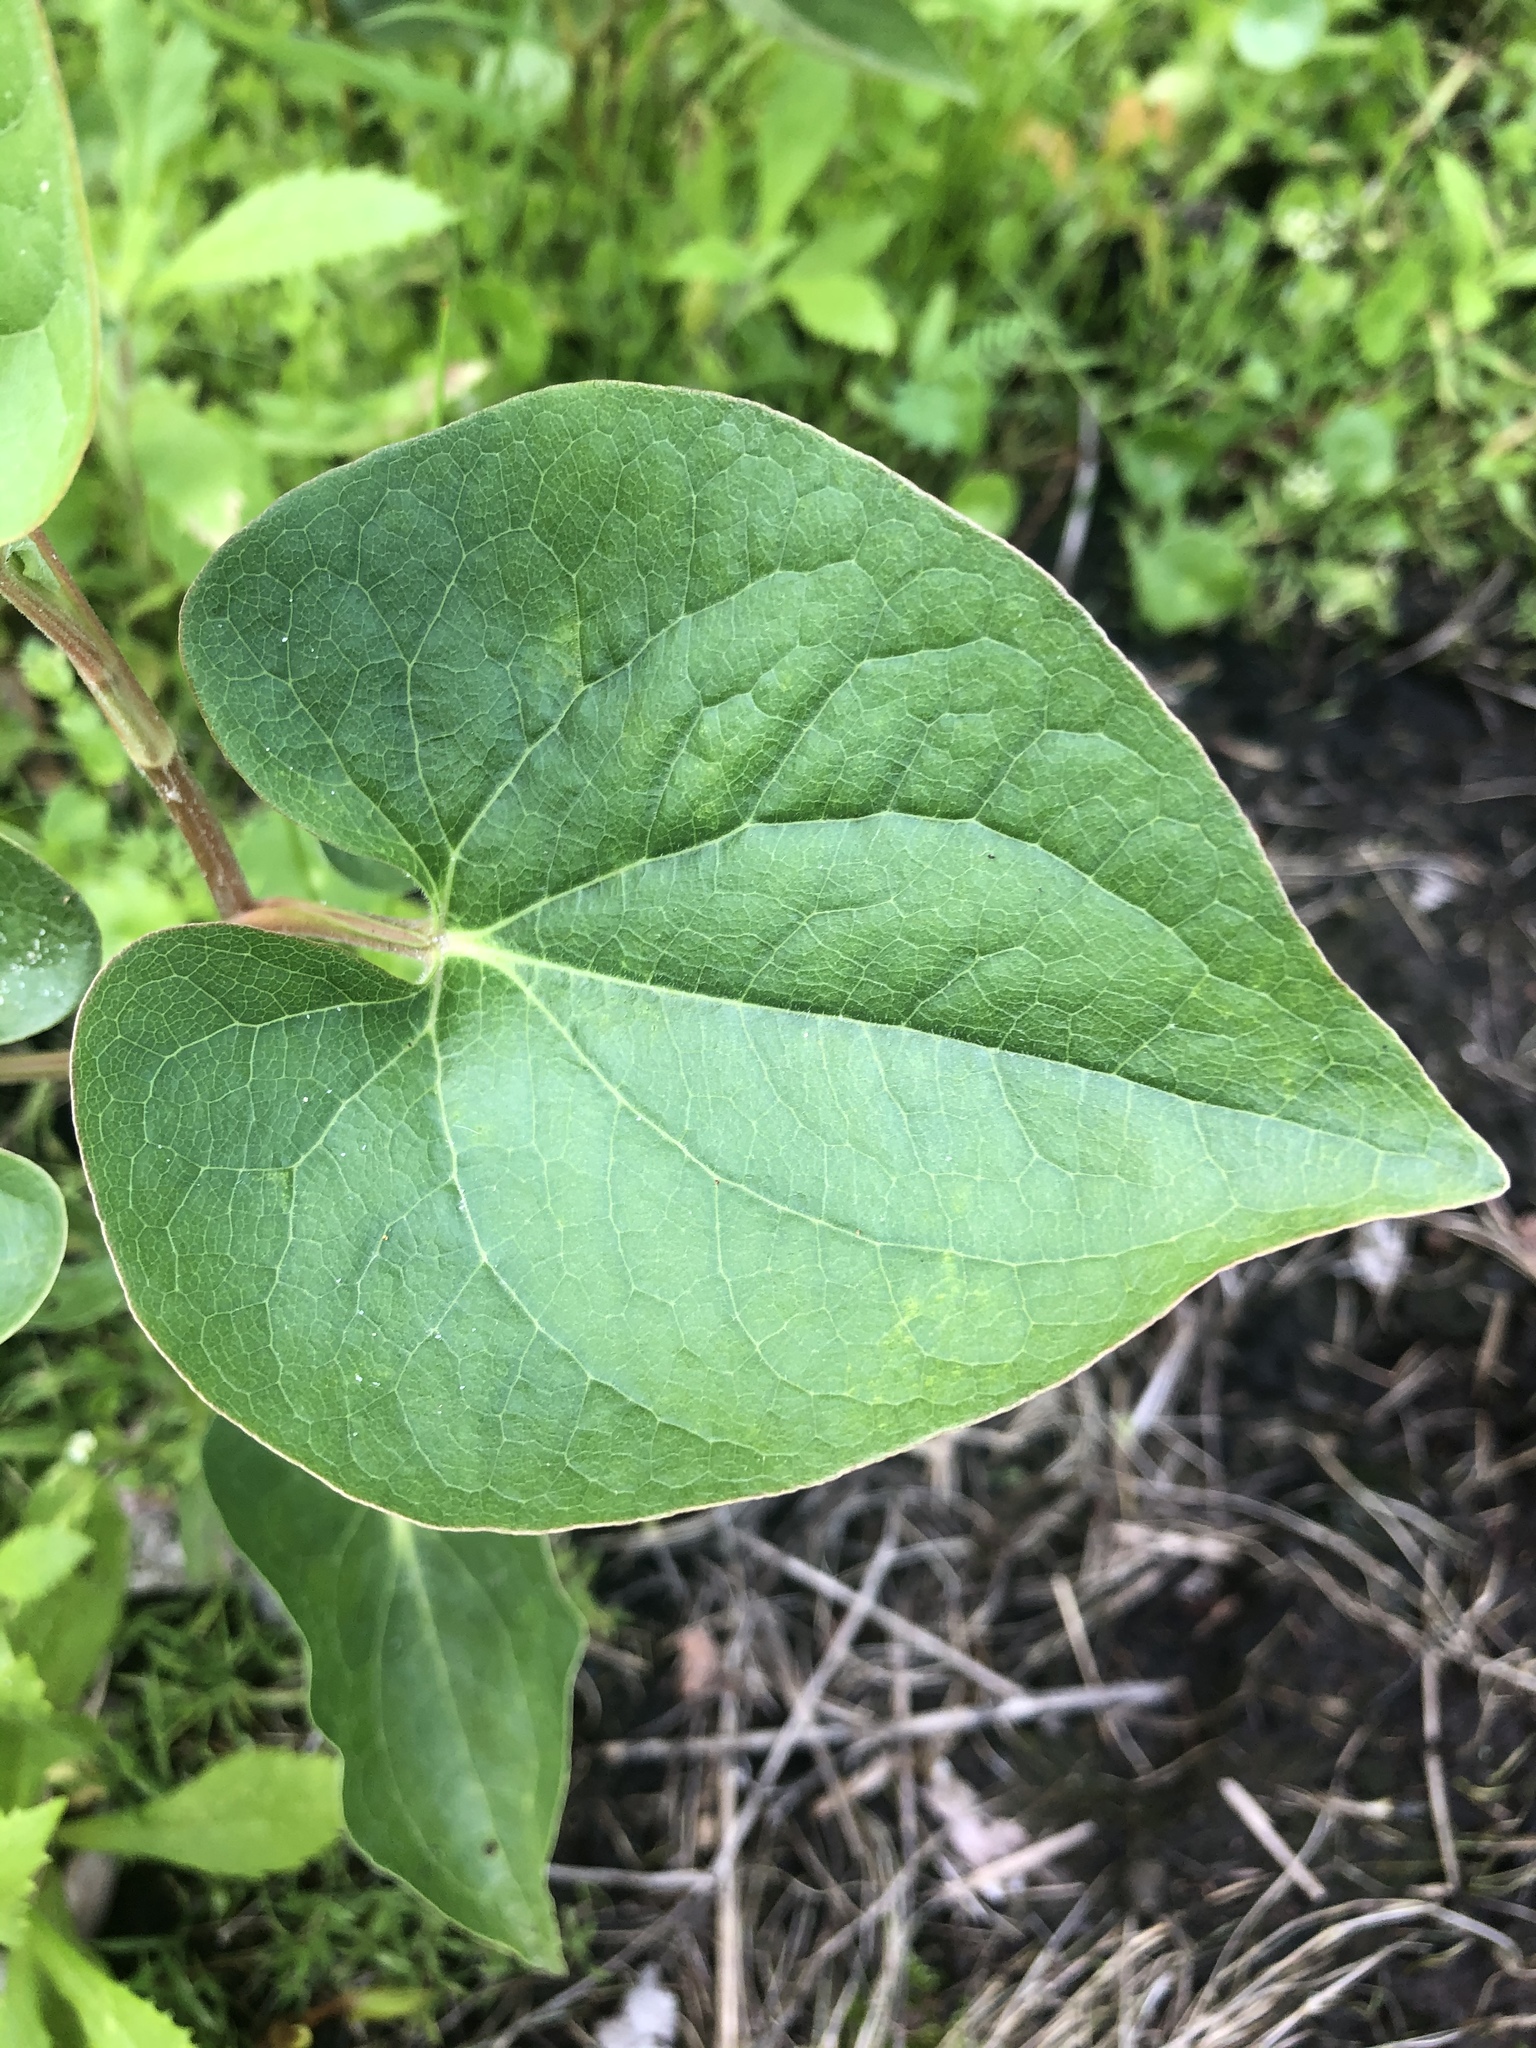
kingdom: Plantae
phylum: Tracheophyta
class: Magnoliopsida
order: Piperales
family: Saururaceae
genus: Saururus
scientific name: Saururus cernuus
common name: Lizard's-tail
